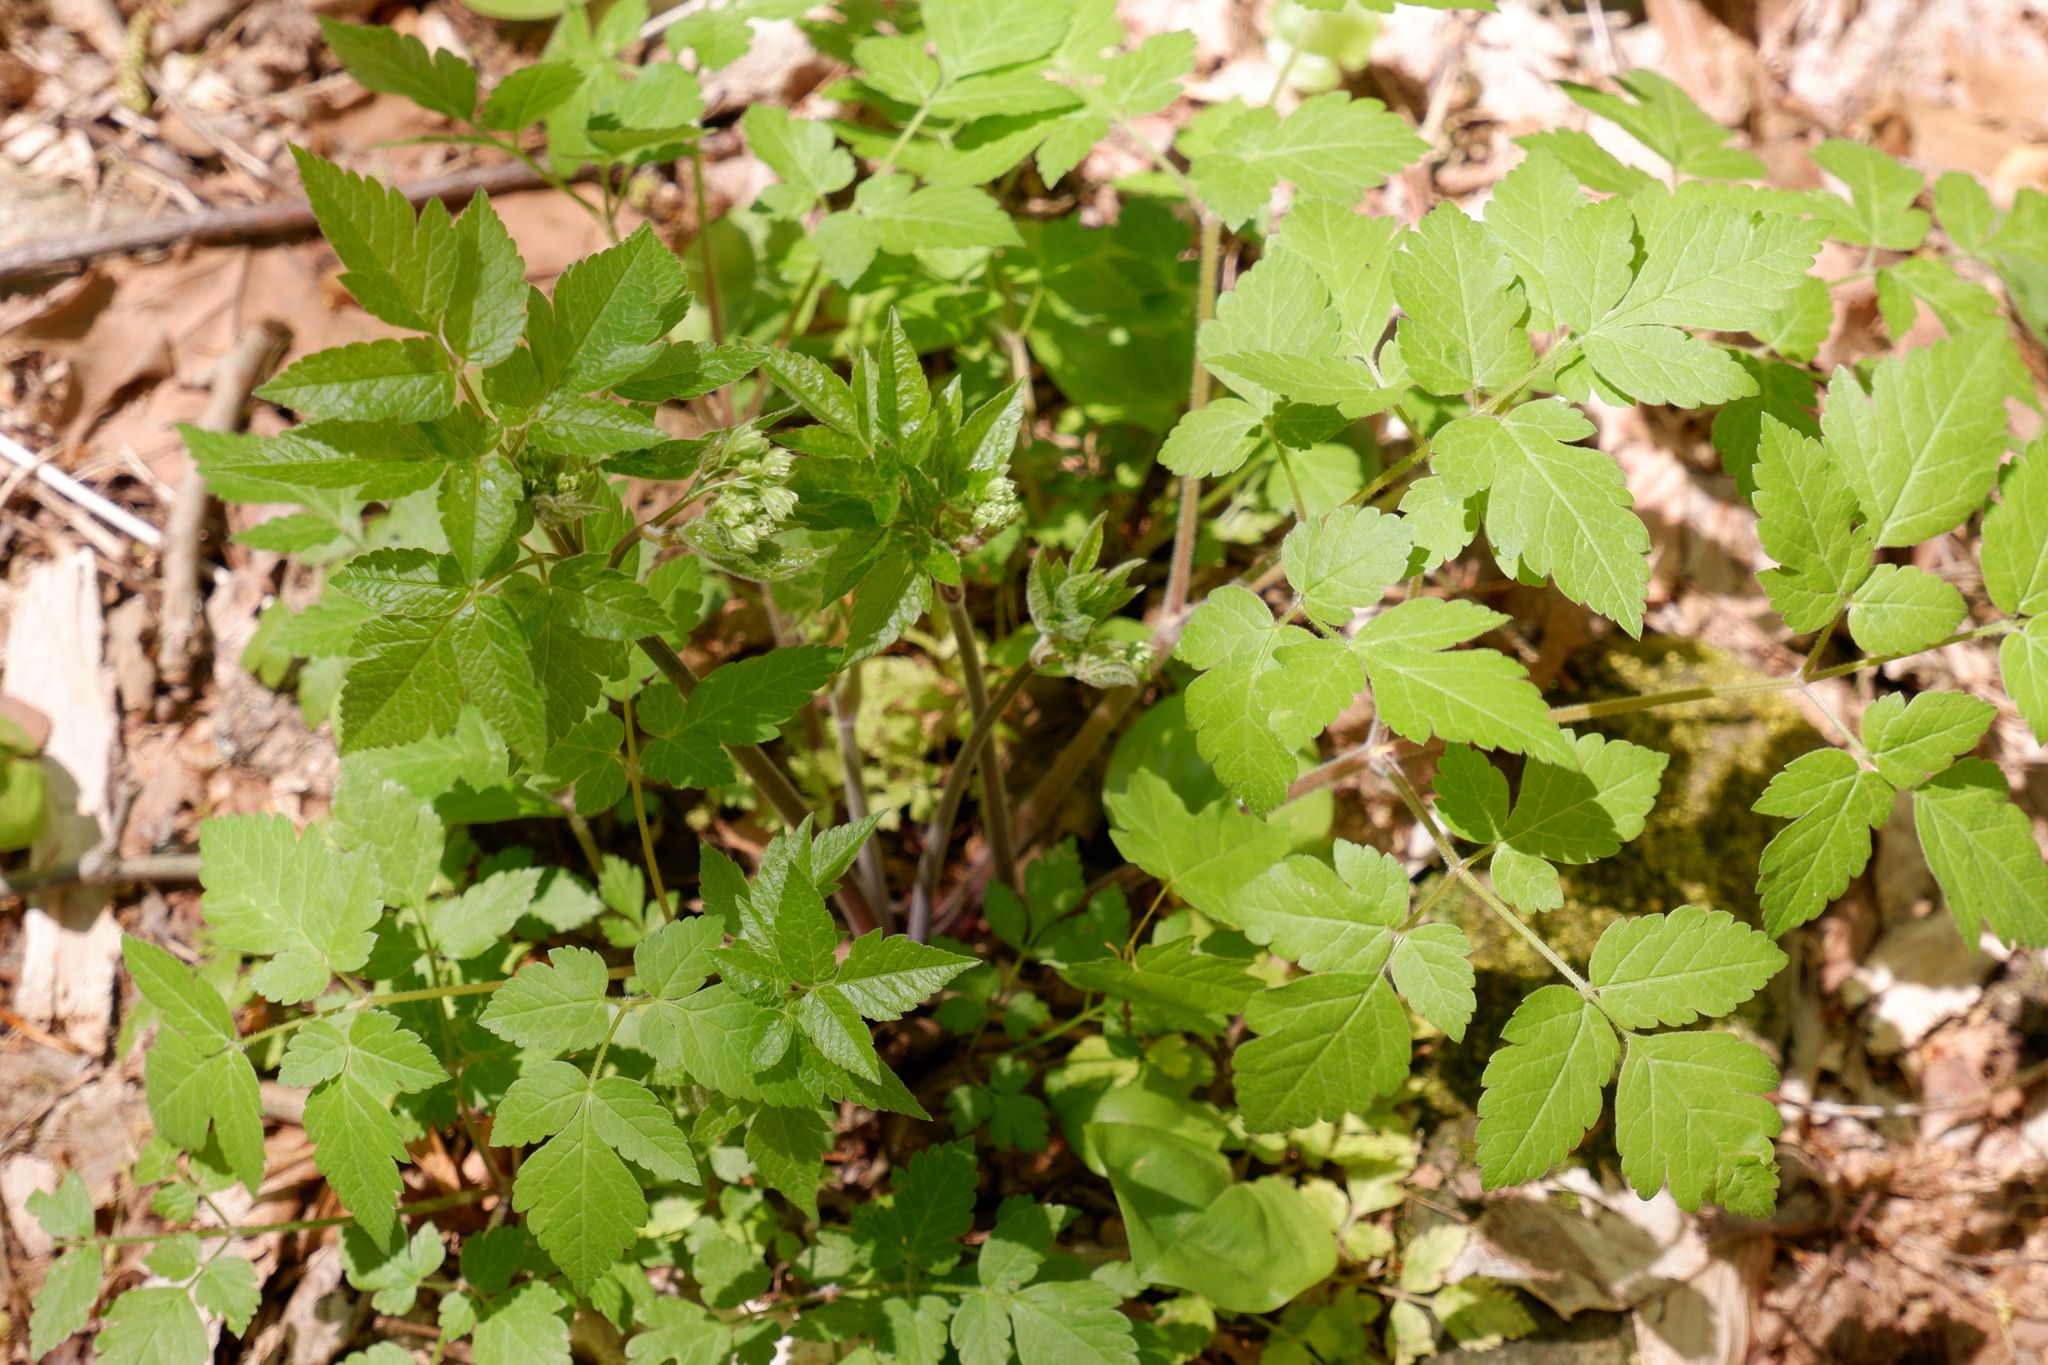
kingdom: Plantae
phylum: Tracheophyta
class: Magnoliopsida
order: Apiales
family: Apiaceae
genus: Osmorhiza
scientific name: Osmorhiza longistylis
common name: Smooth sweet cicely
